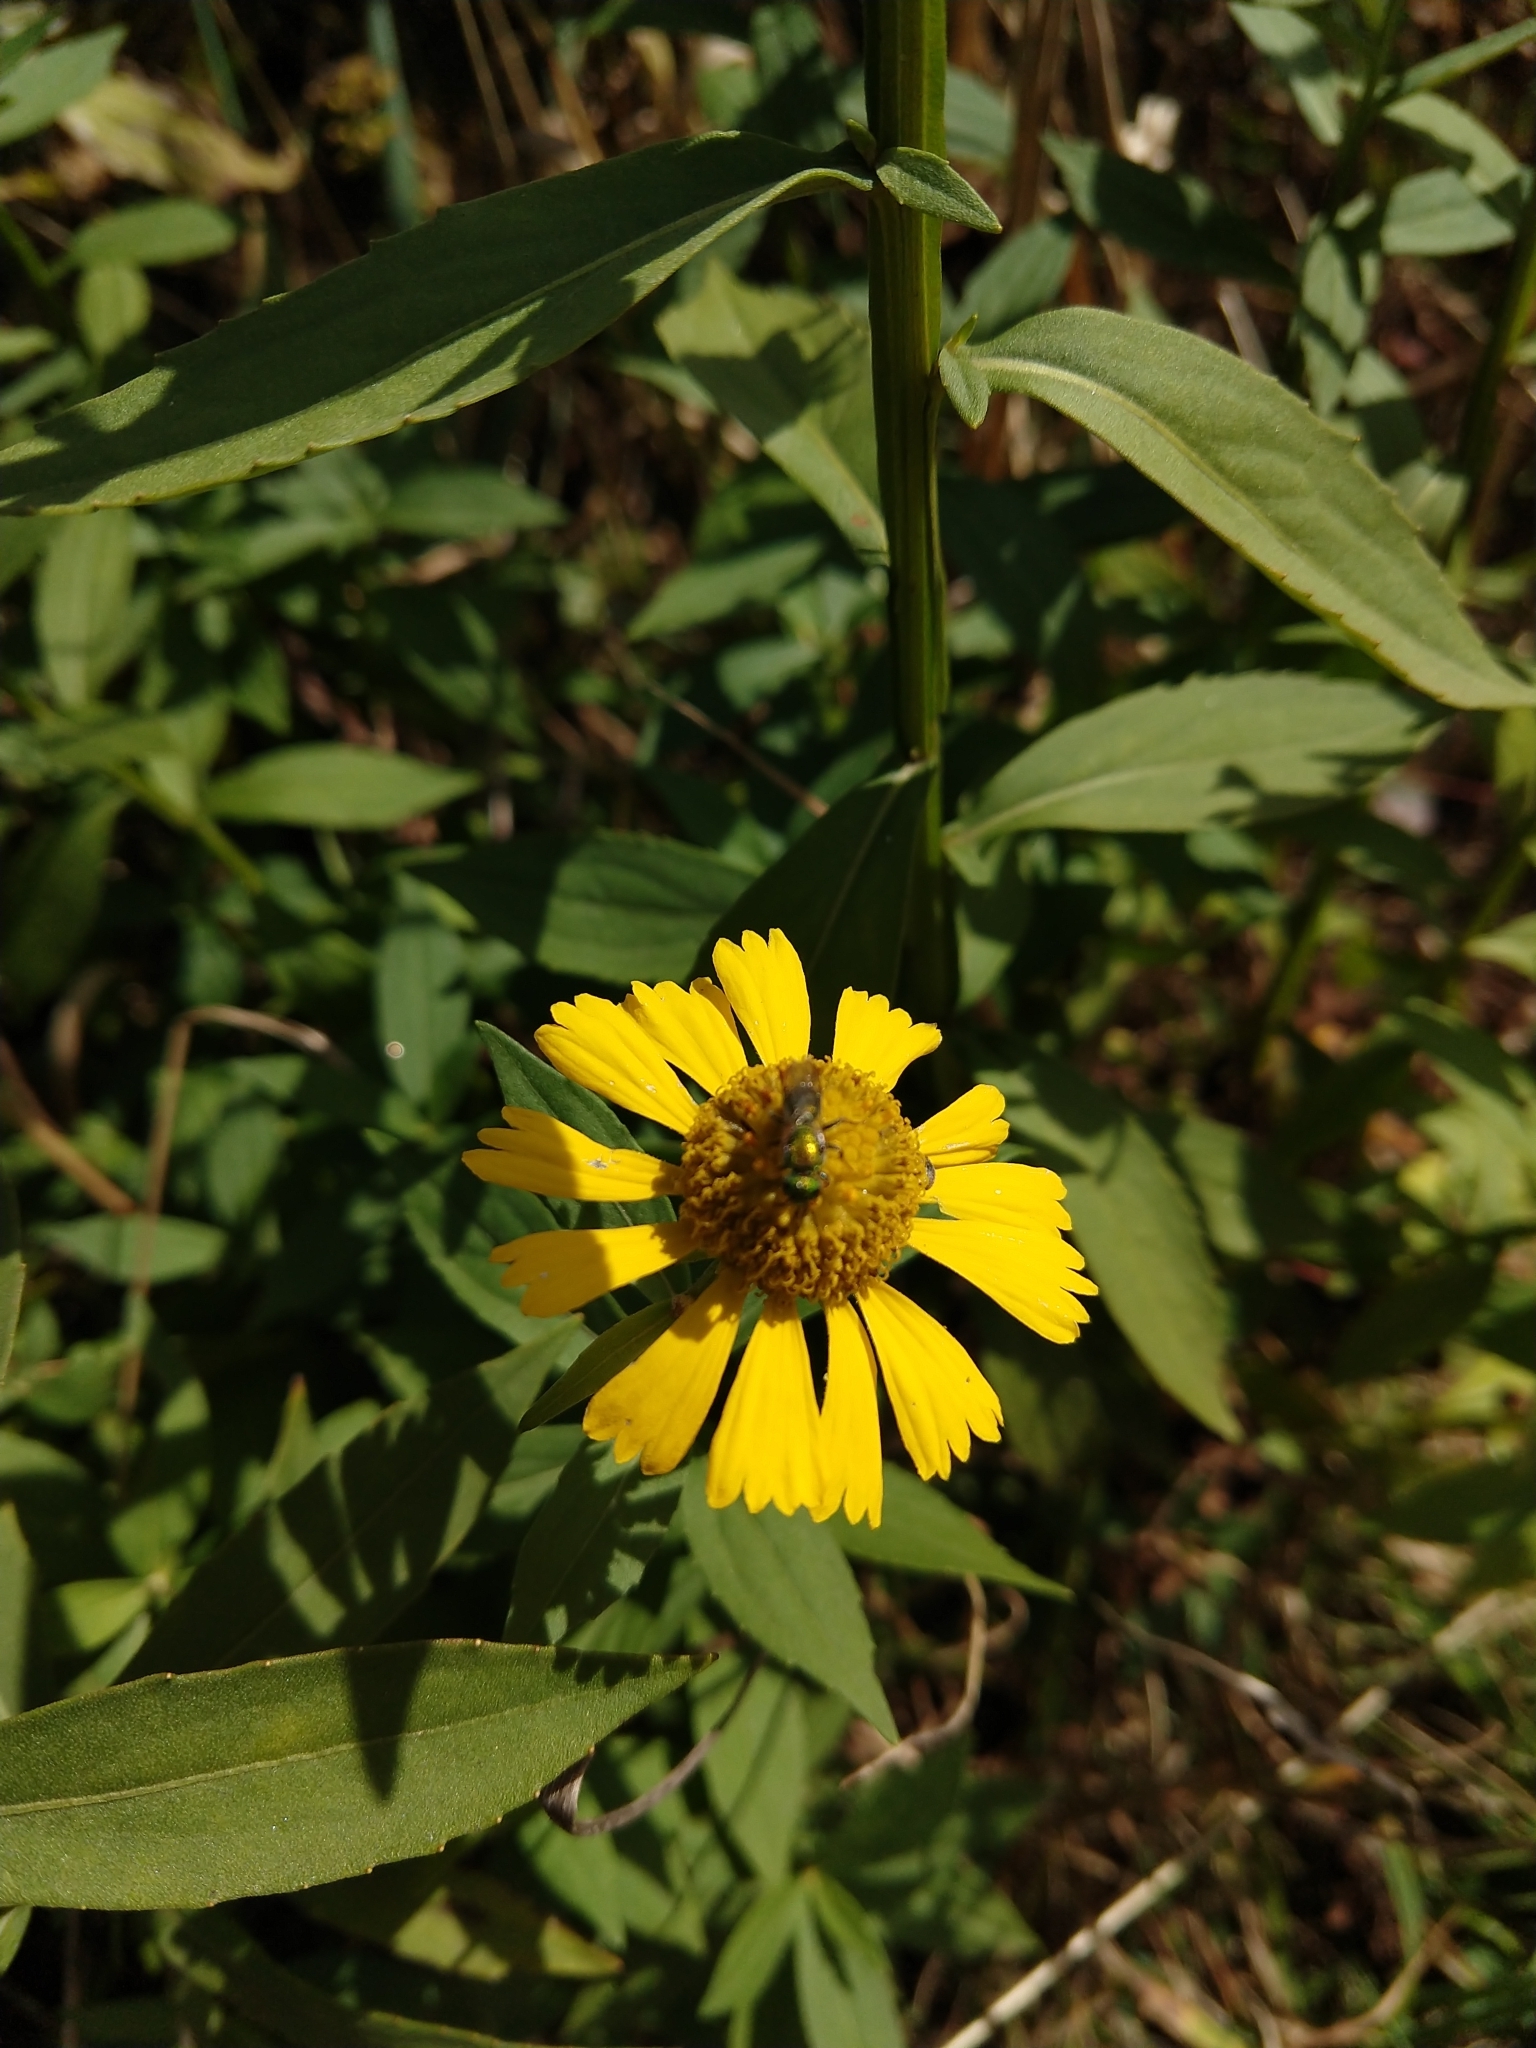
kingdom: Plantae
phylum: Tracheophyta
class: Magnoliopsida
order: Asterales
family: Asteraceae
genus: Helenium
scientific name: Helenium autumnale
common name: Sneezeweed
